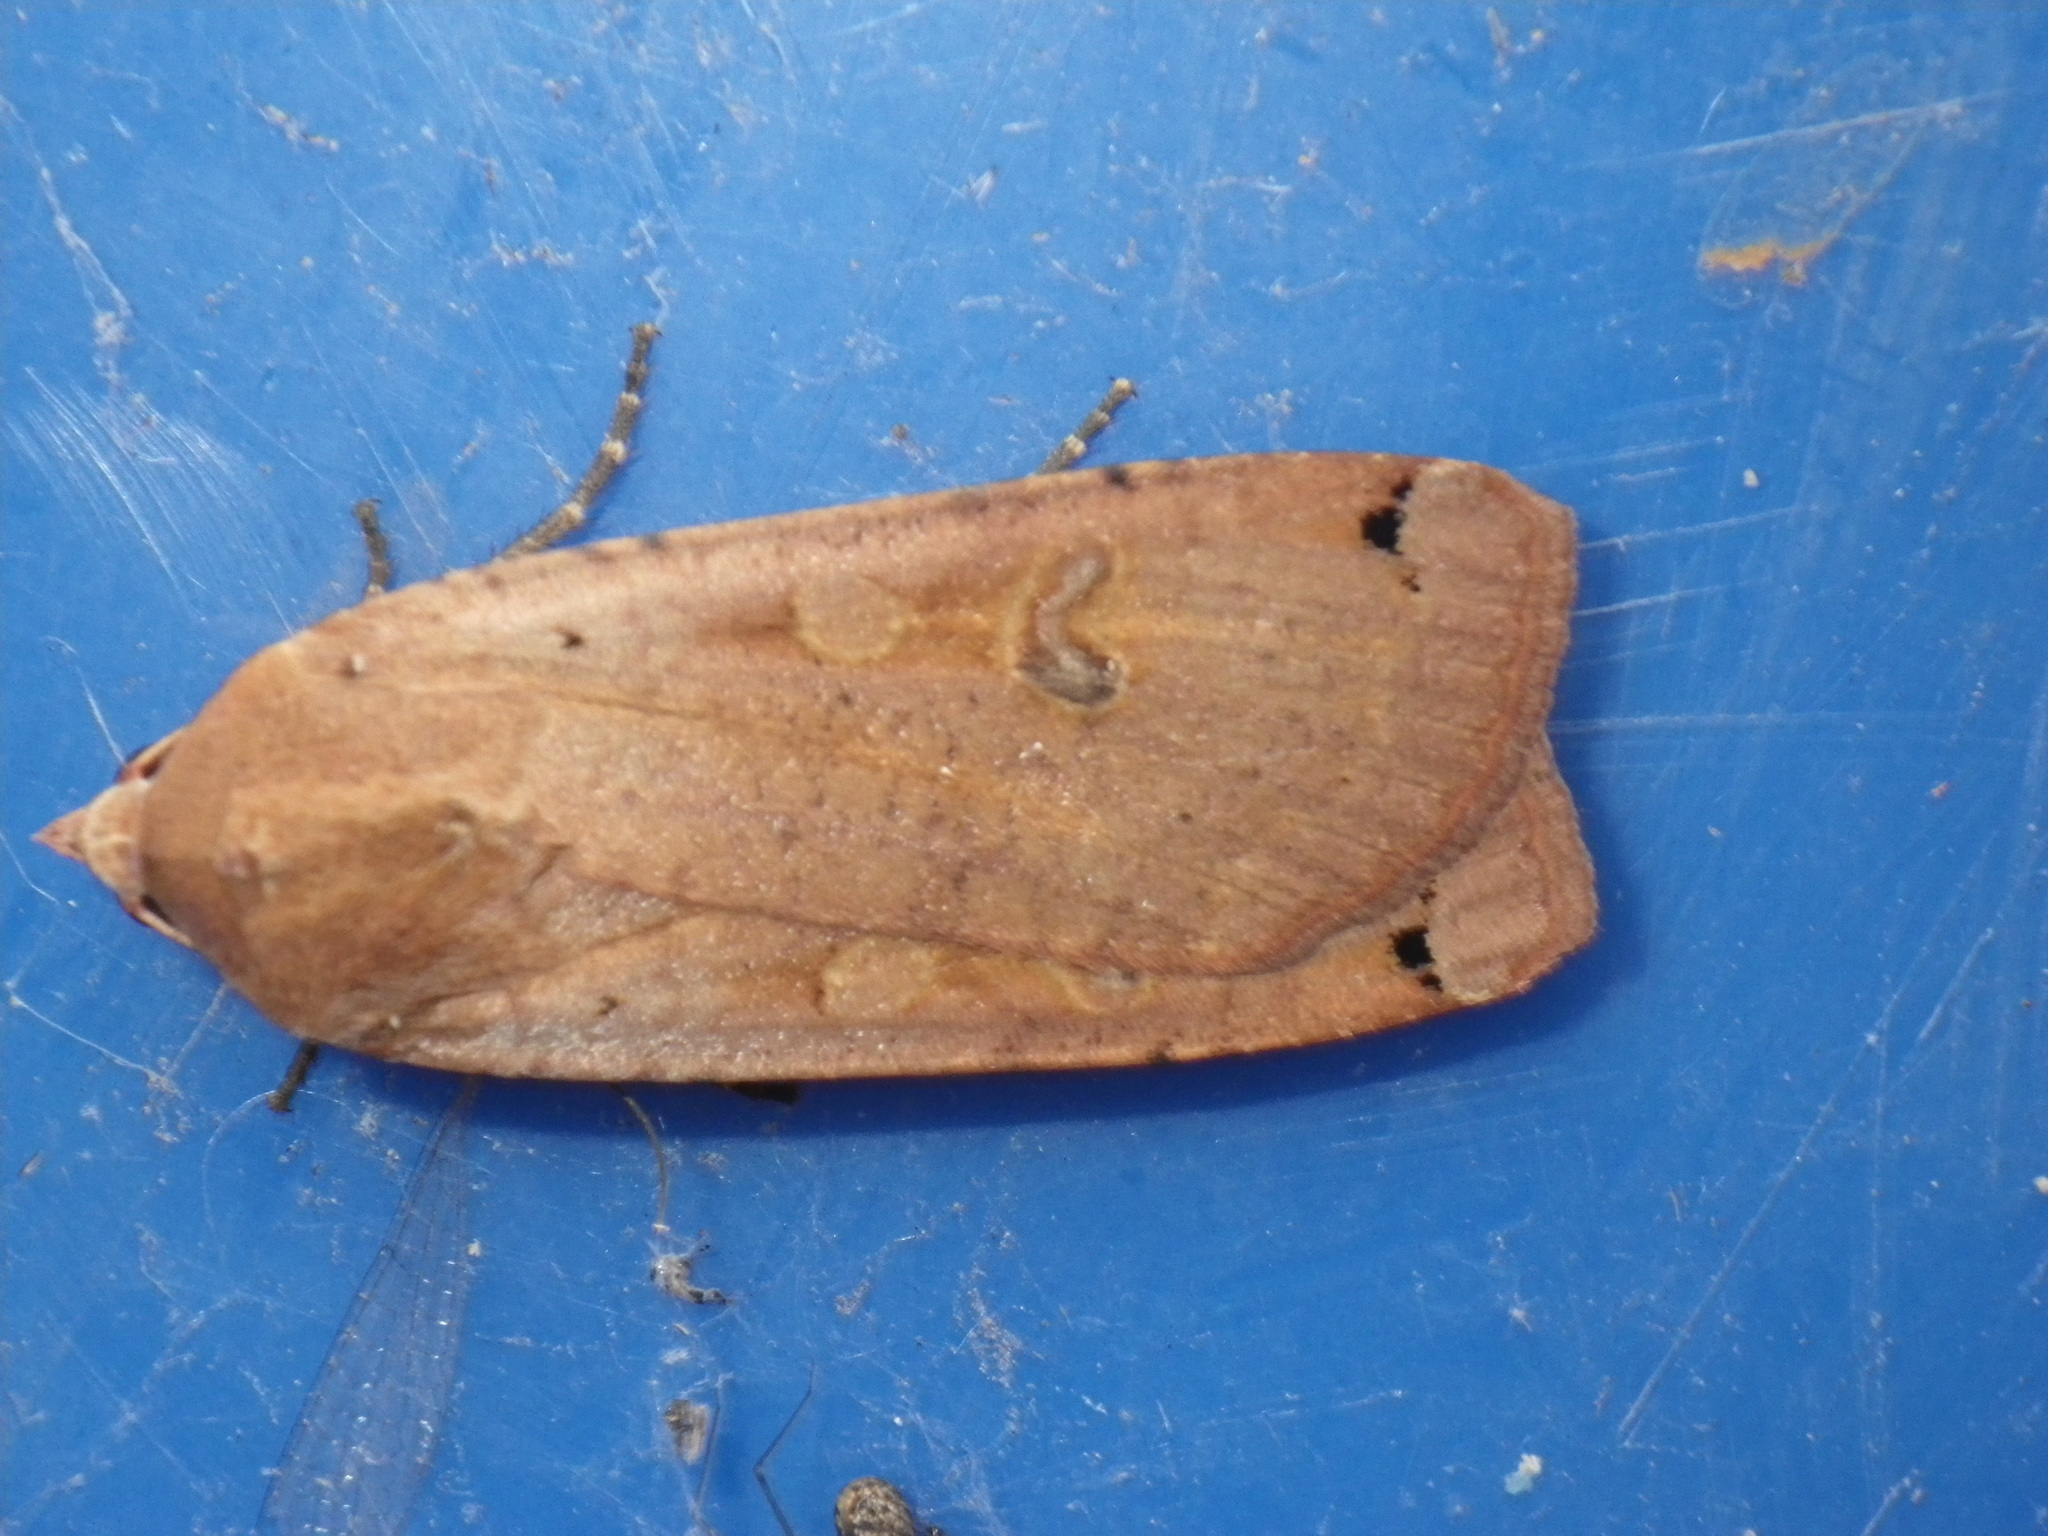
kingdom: Animalia
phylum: Arthropoda
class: Insecta
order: Lepidoptera
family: Noctuidae
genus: Noctua
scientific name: Noctua pronuba
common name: Large yellow underwing
